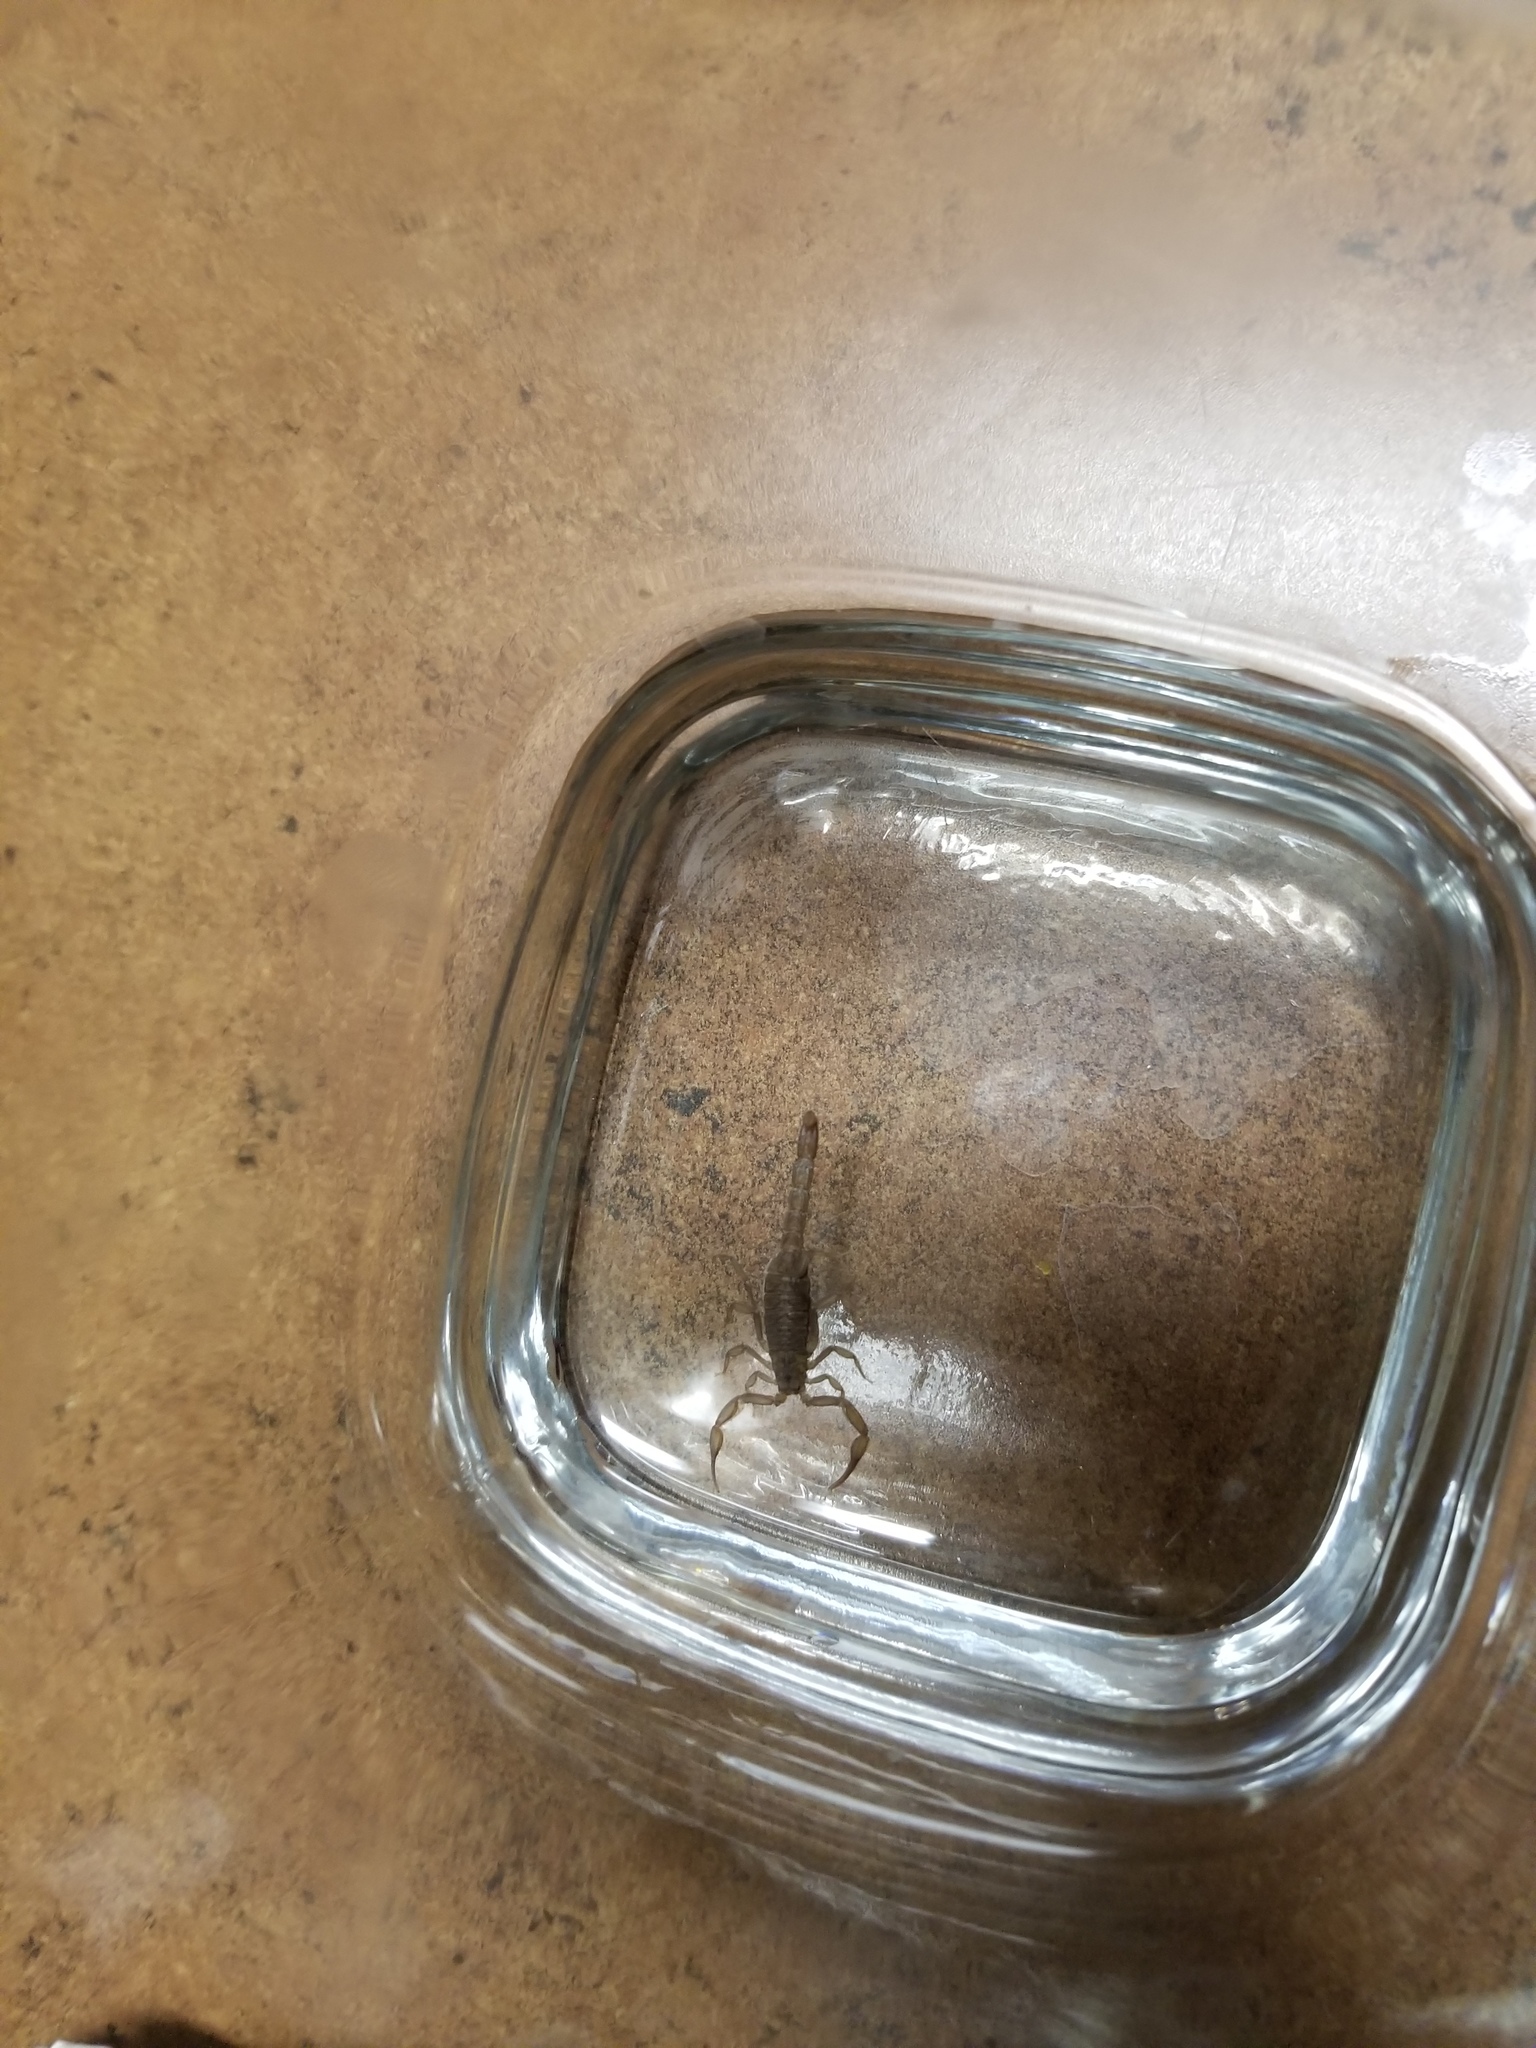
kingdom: Animalia
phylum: Arthropoda
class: Arachnida
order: Scorpiones
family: Vaejovidae
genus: Serradigitus
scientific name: Serradigitus gertschi
